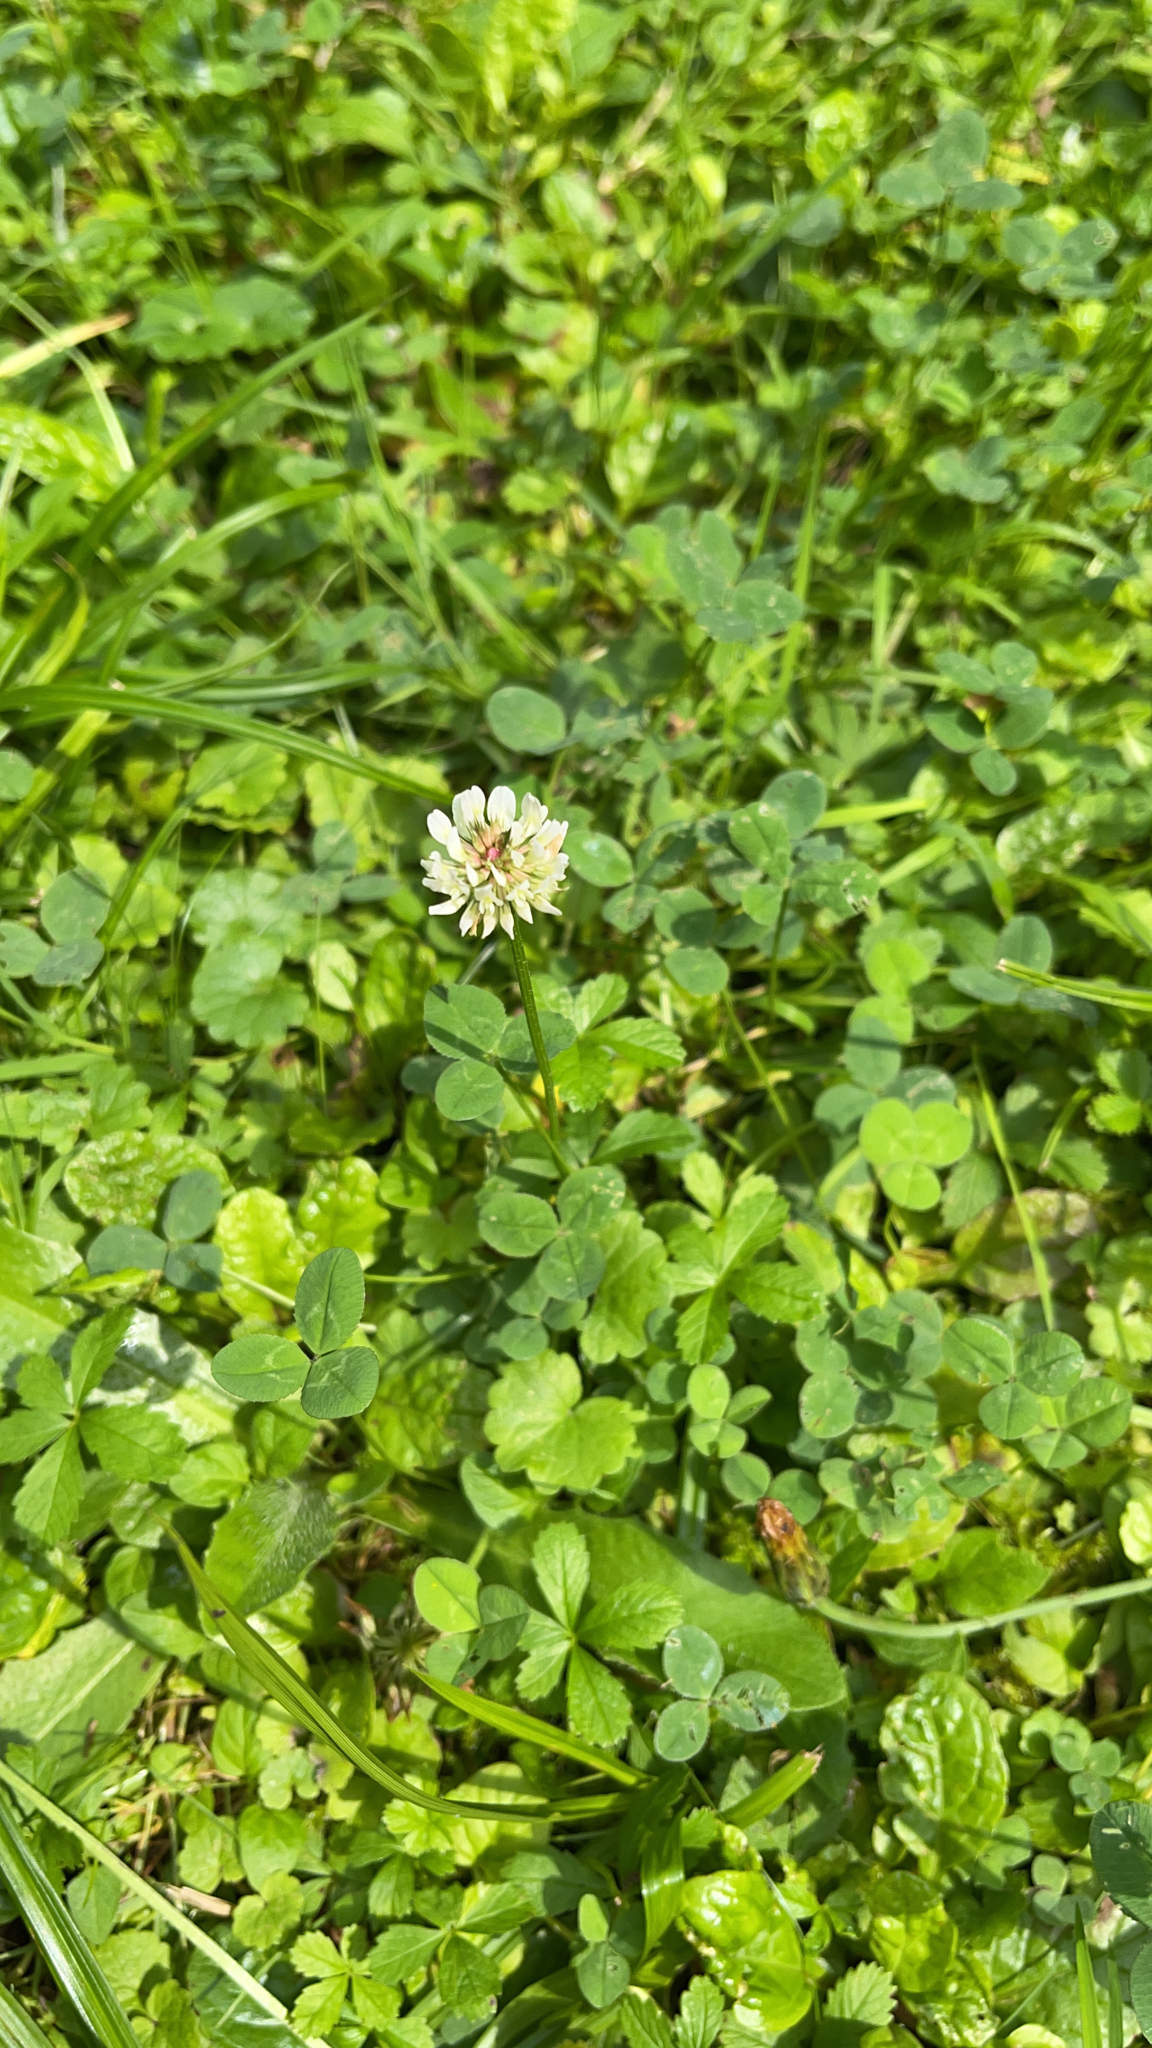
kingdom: Plantae
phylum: Tracheophyta
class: Magnoliopsida
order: Fabales
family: Fabaceae
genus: Trifolium
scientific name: Trifolium repens
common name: White clover
